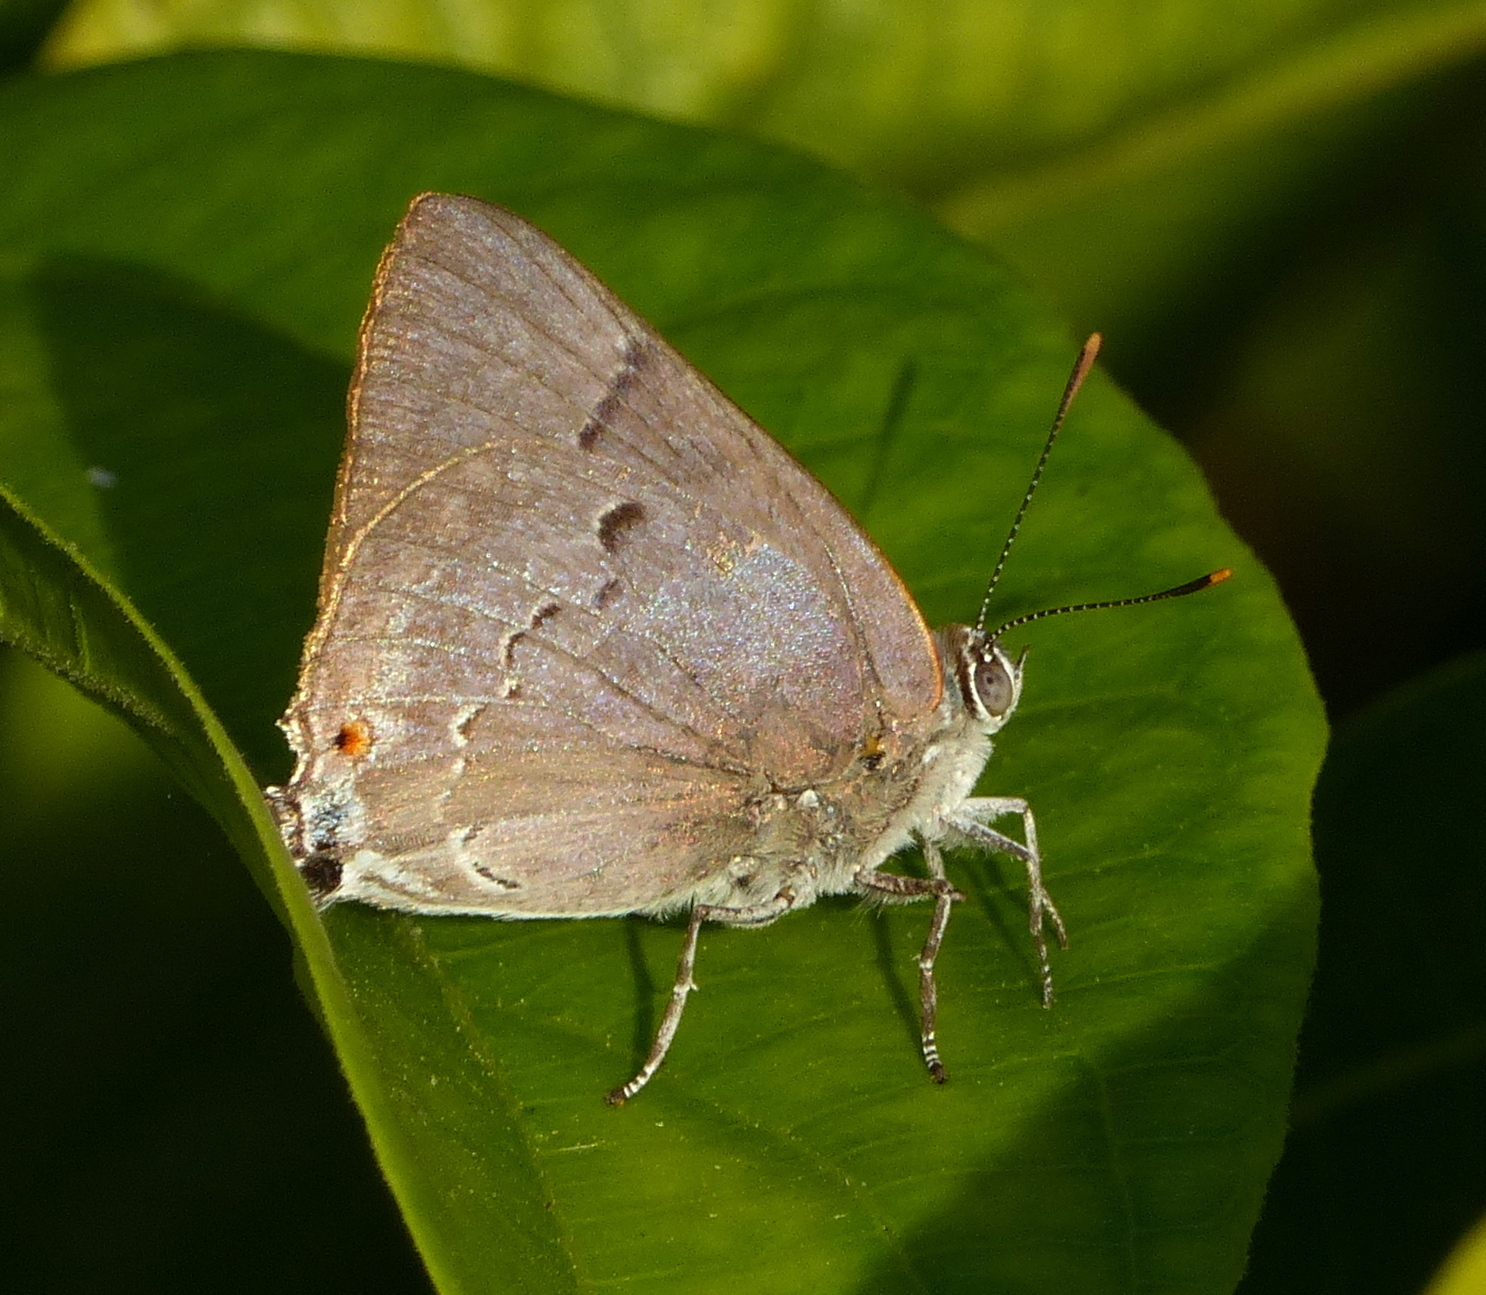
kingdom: Animalia
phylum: Arthropoda
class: Insecta
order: Lepidoptera
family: Lycaenidae
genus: Thecla
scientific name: Thecla marius
